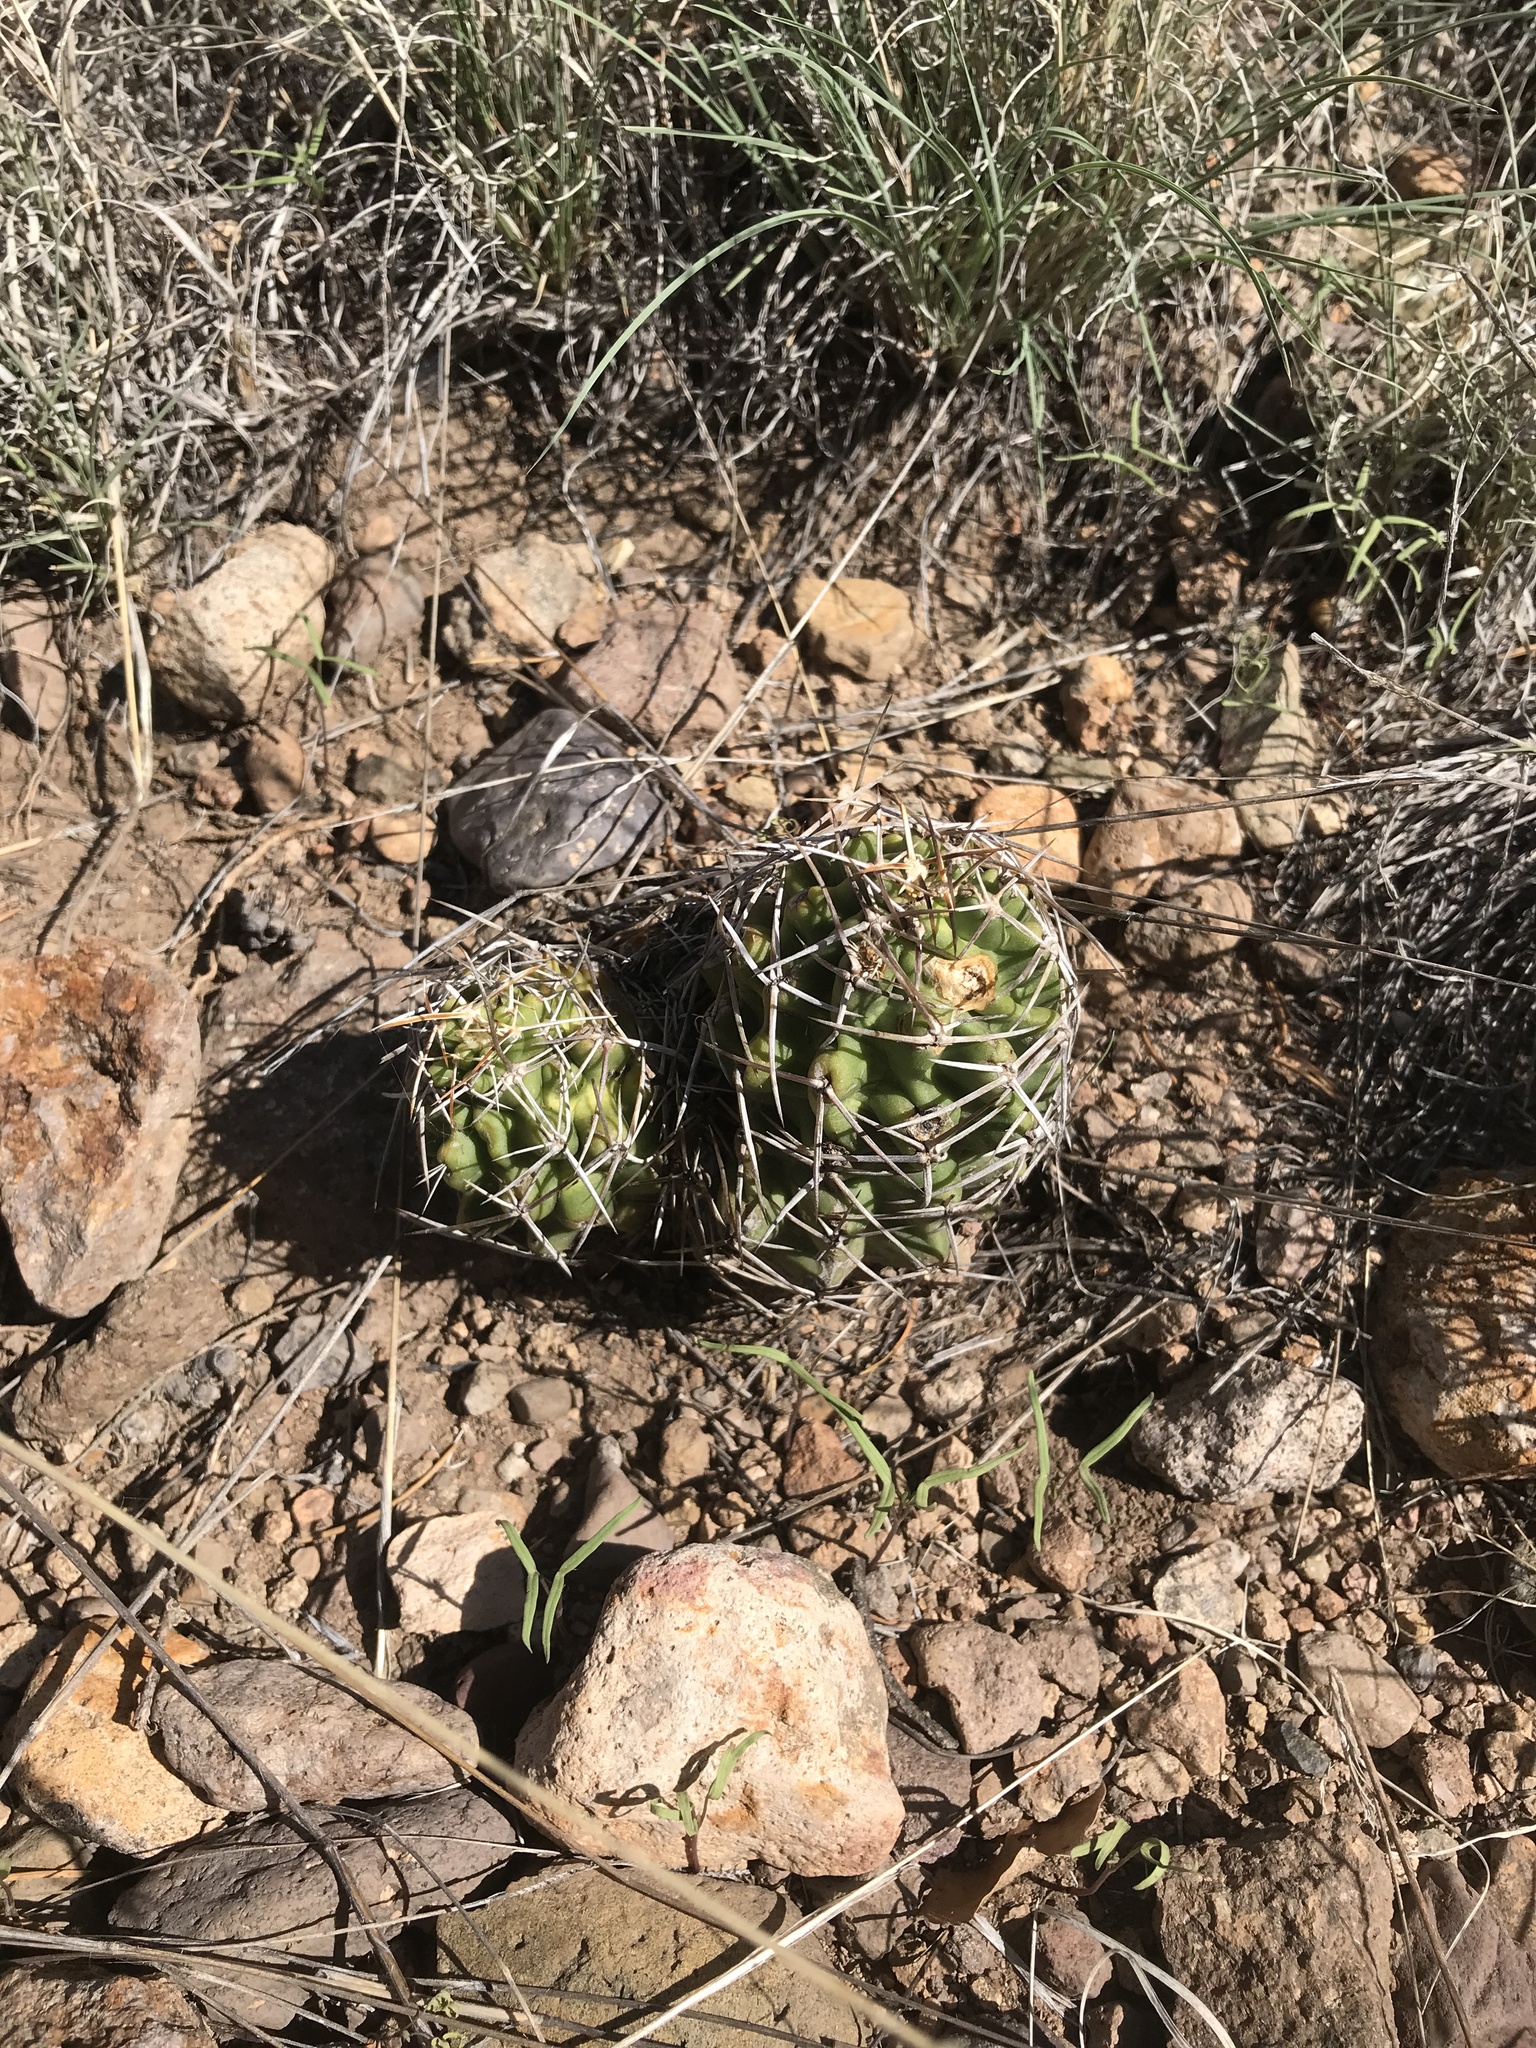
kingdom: Plantae
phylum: Tracheophyta
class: Magnoliopsida
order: Caryophyllales
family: Cactaceae
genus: Echinocereus
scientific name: Echinocereus fendleri
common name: Fendler's hedgehog cactus
